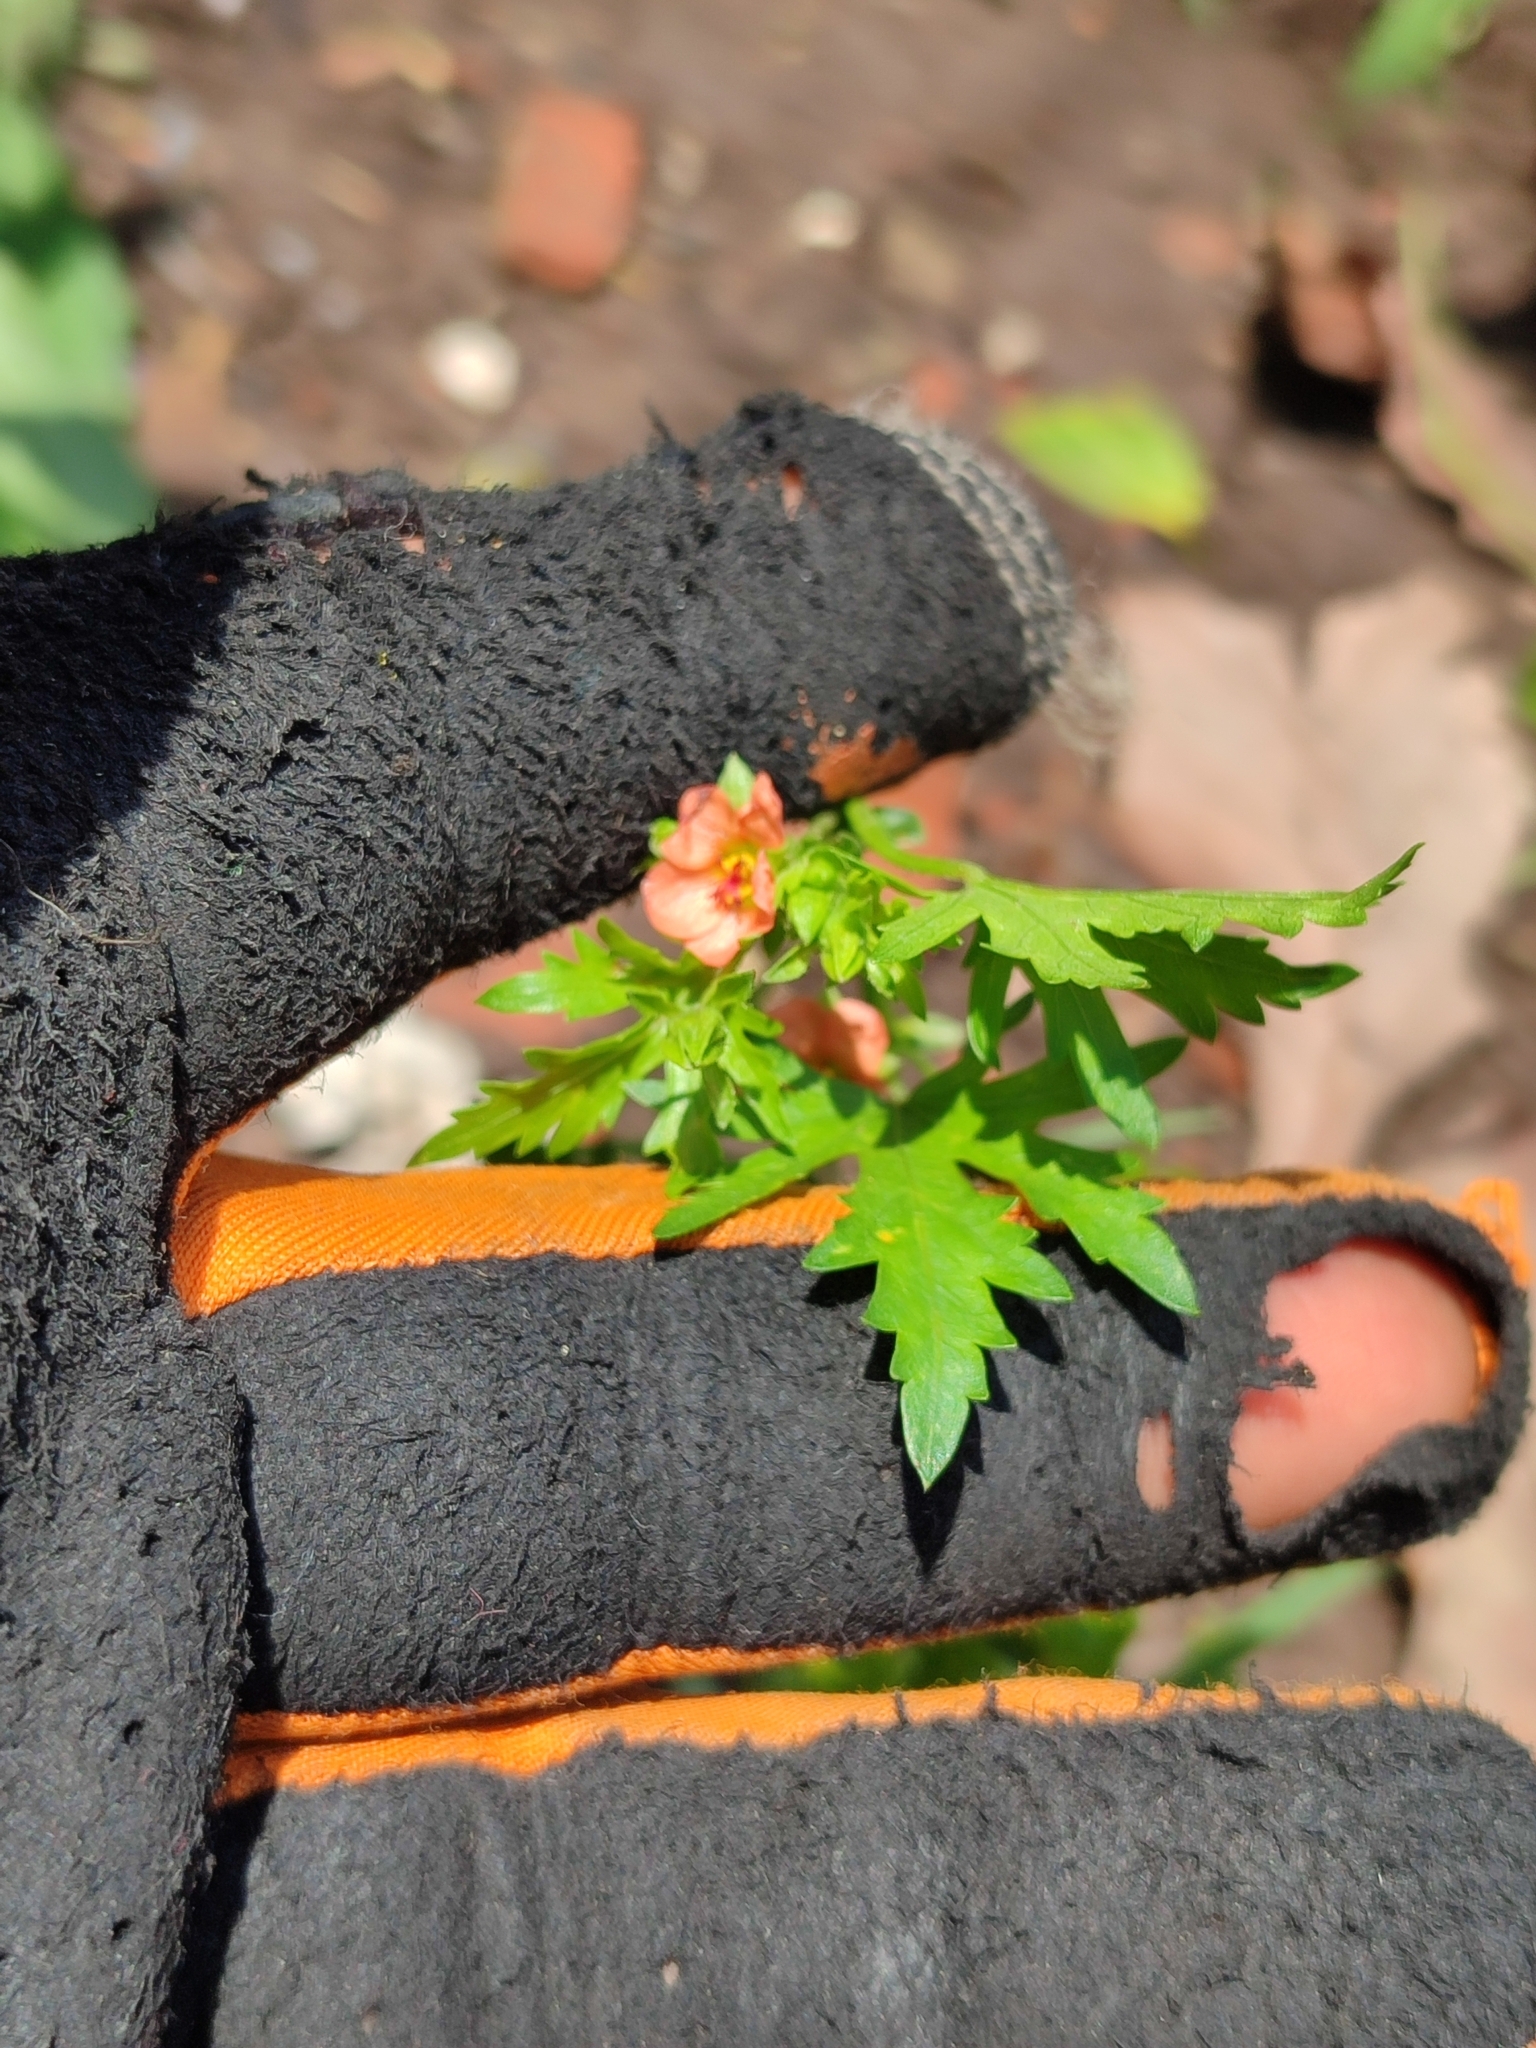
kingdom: Plantae
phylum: Tracheophyta
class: Magnoliopsida
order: Malvales
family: Malvaceae
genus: Modiola
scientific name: Modiola caroliniana
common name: Carolina bristlemallow
